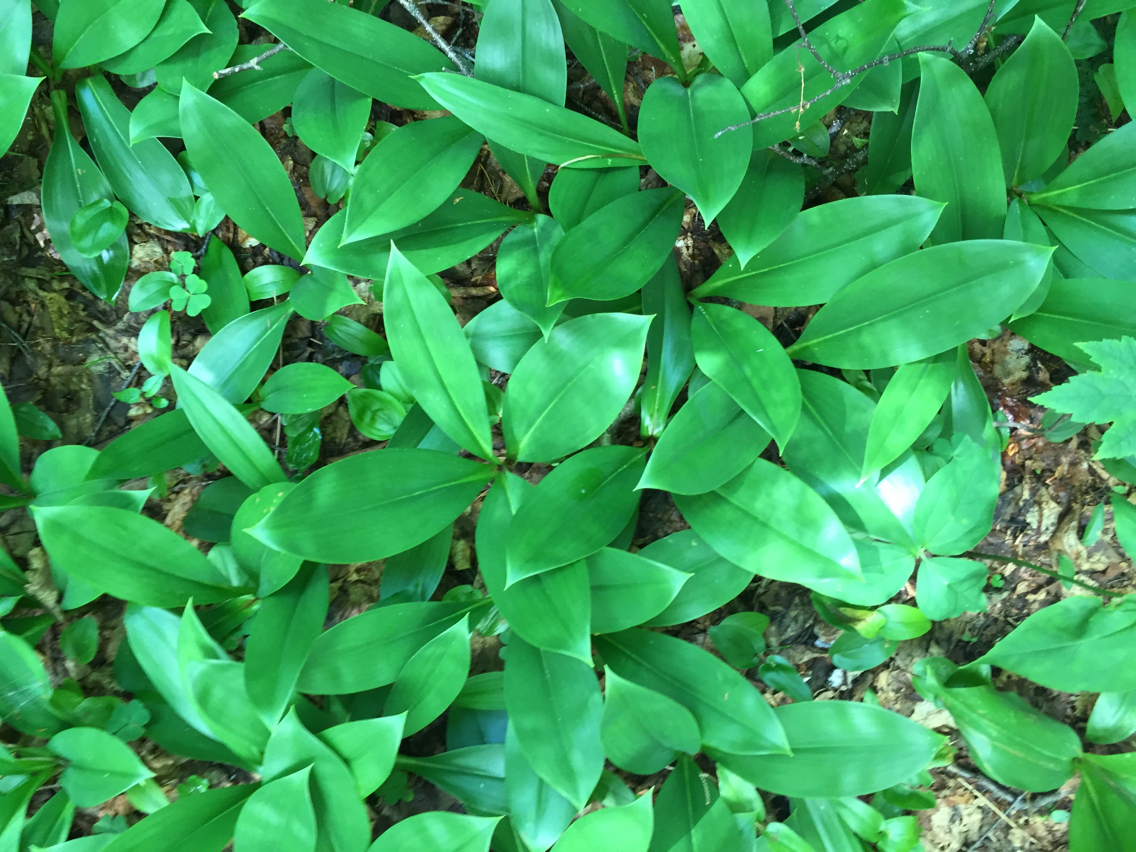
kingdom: Plantae
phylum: Tracheophyta
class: Liliopsida
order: Liliales
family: Liliaceae
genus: Clintonia
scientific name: Clintonia borealis
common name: Yellow clintonia
